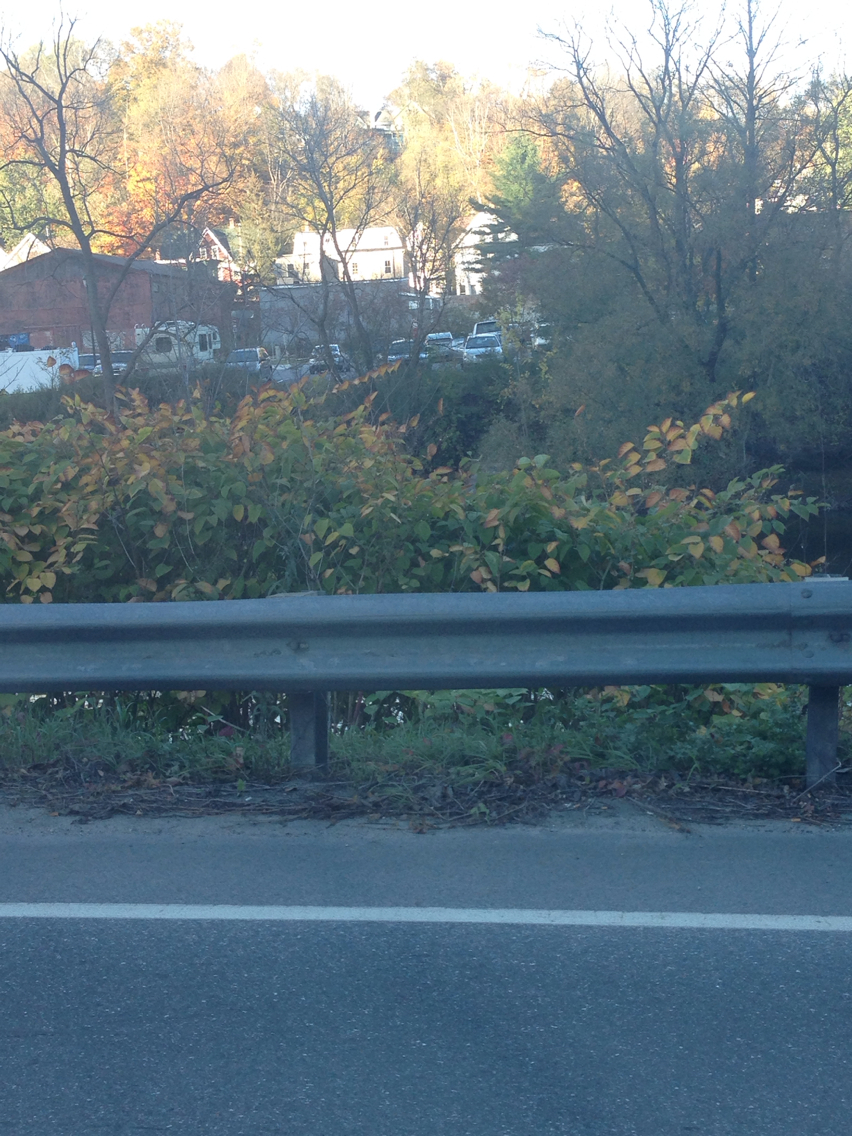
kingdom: Plantae
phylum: Tracheophyta
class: Magnoliopsida
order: Caryophyllales
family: Polygonaceae
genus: Reynoutria
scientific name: Reynoutria japonica
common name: Japanese knotweed
